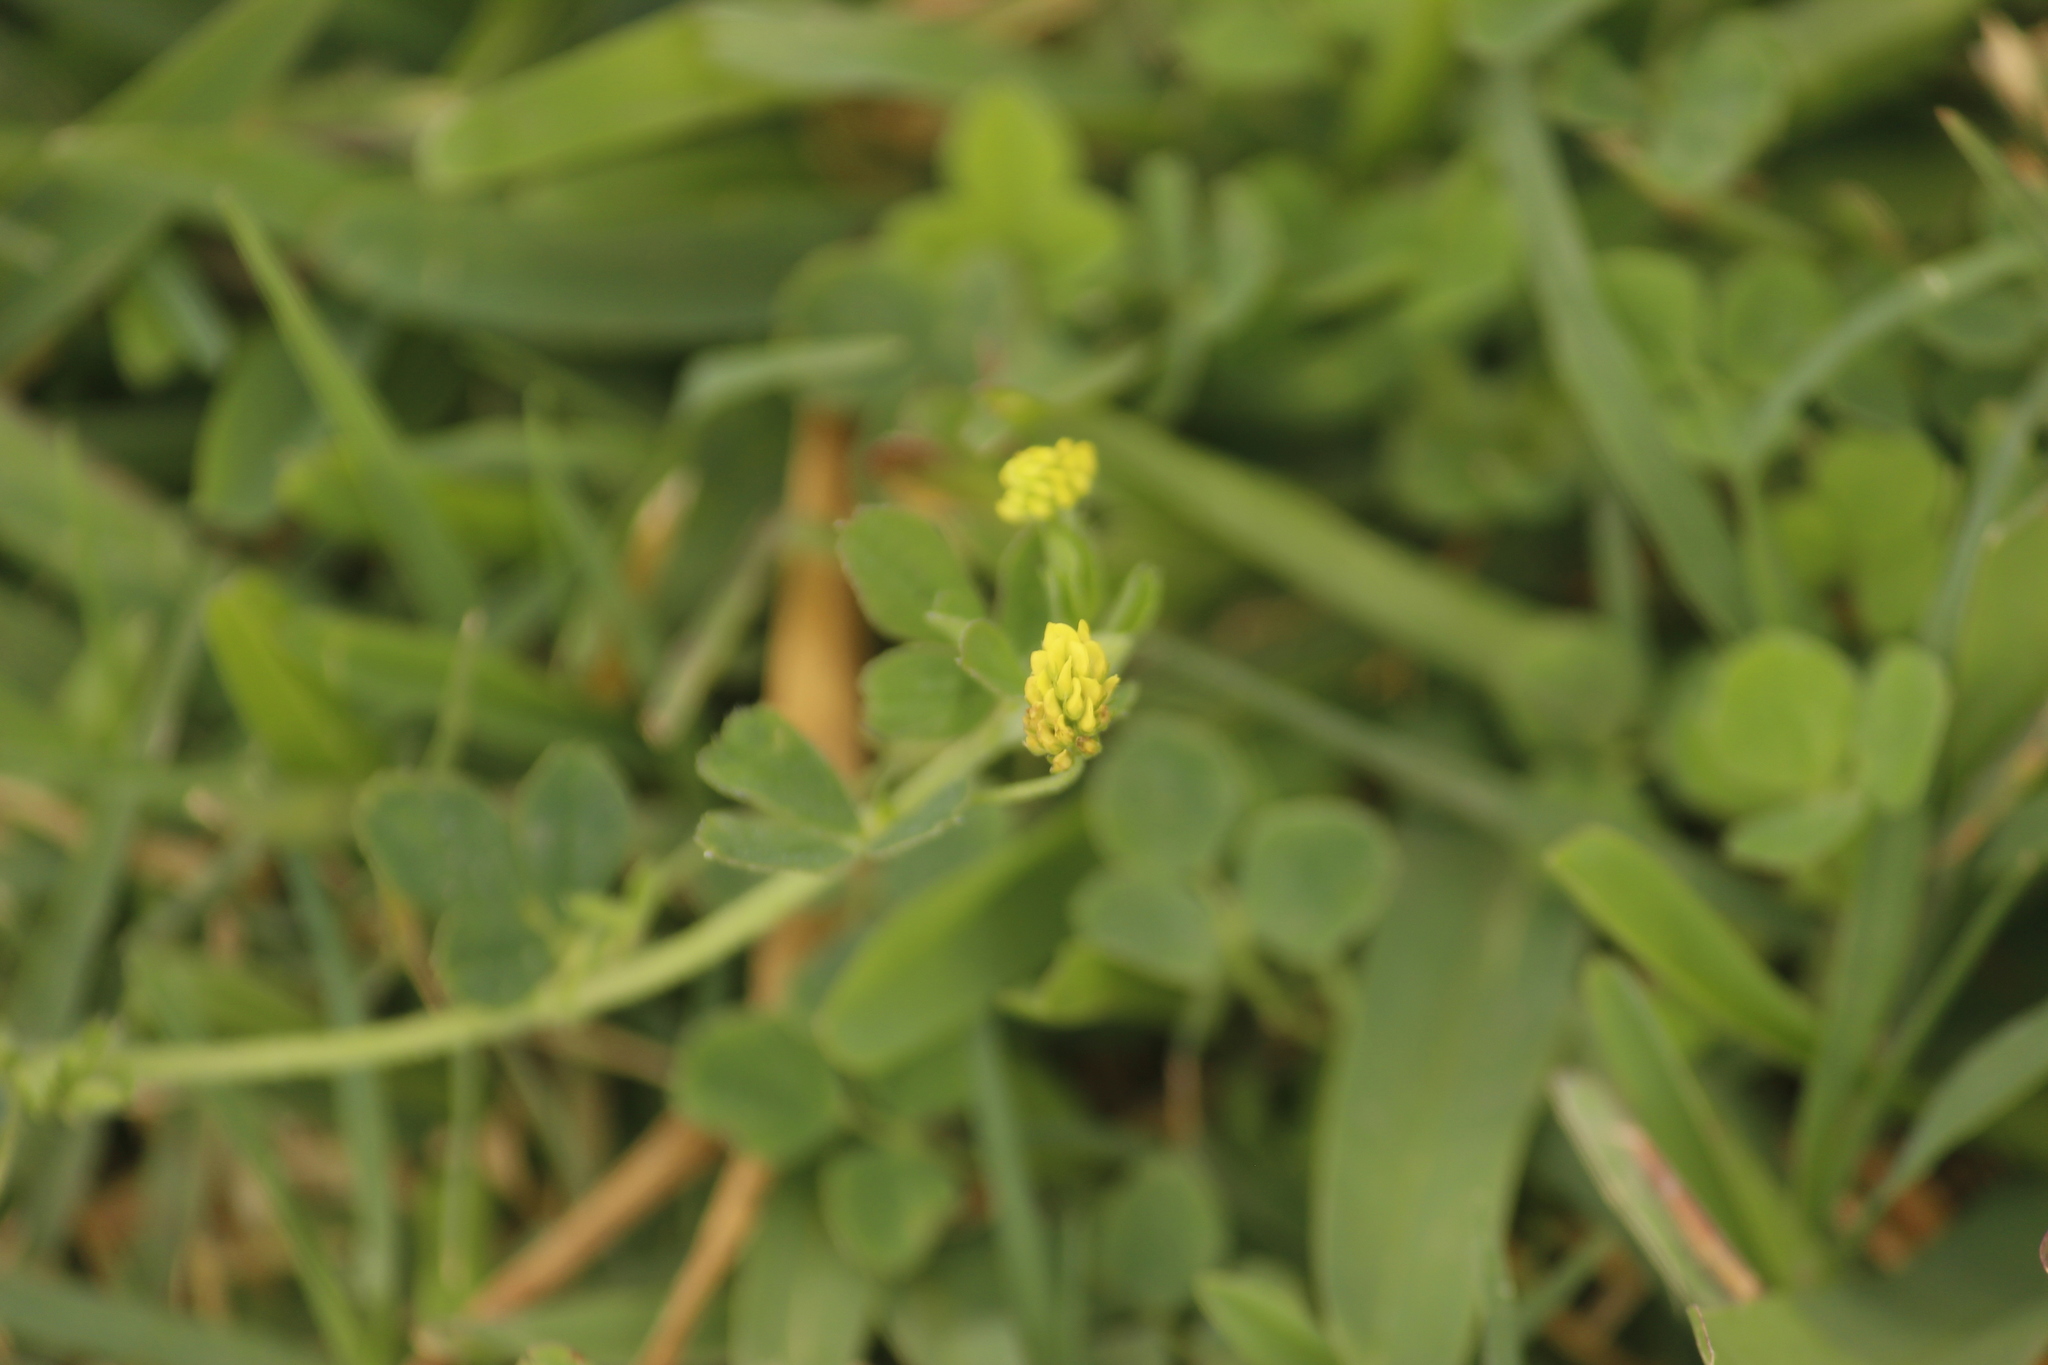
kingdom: Plantae
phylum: Tracheophyta
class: Magnoliopsida
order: Fabales
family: Fabaceae
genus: Medicago
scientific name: Medicago lupulina
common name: Black medick
